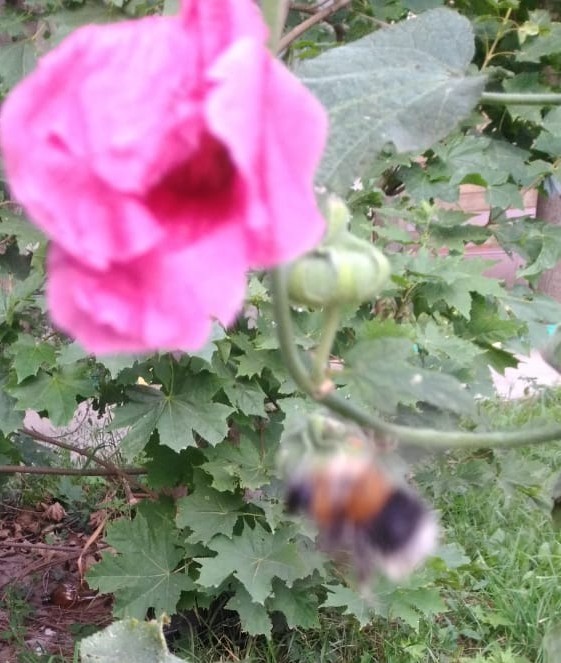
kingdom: Animalia
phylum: Arthropoda
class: Insecta
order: Hymenoptera
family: Apidae
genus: Bombus
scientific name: Bombus hypnorum
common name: New garden bumblebee
